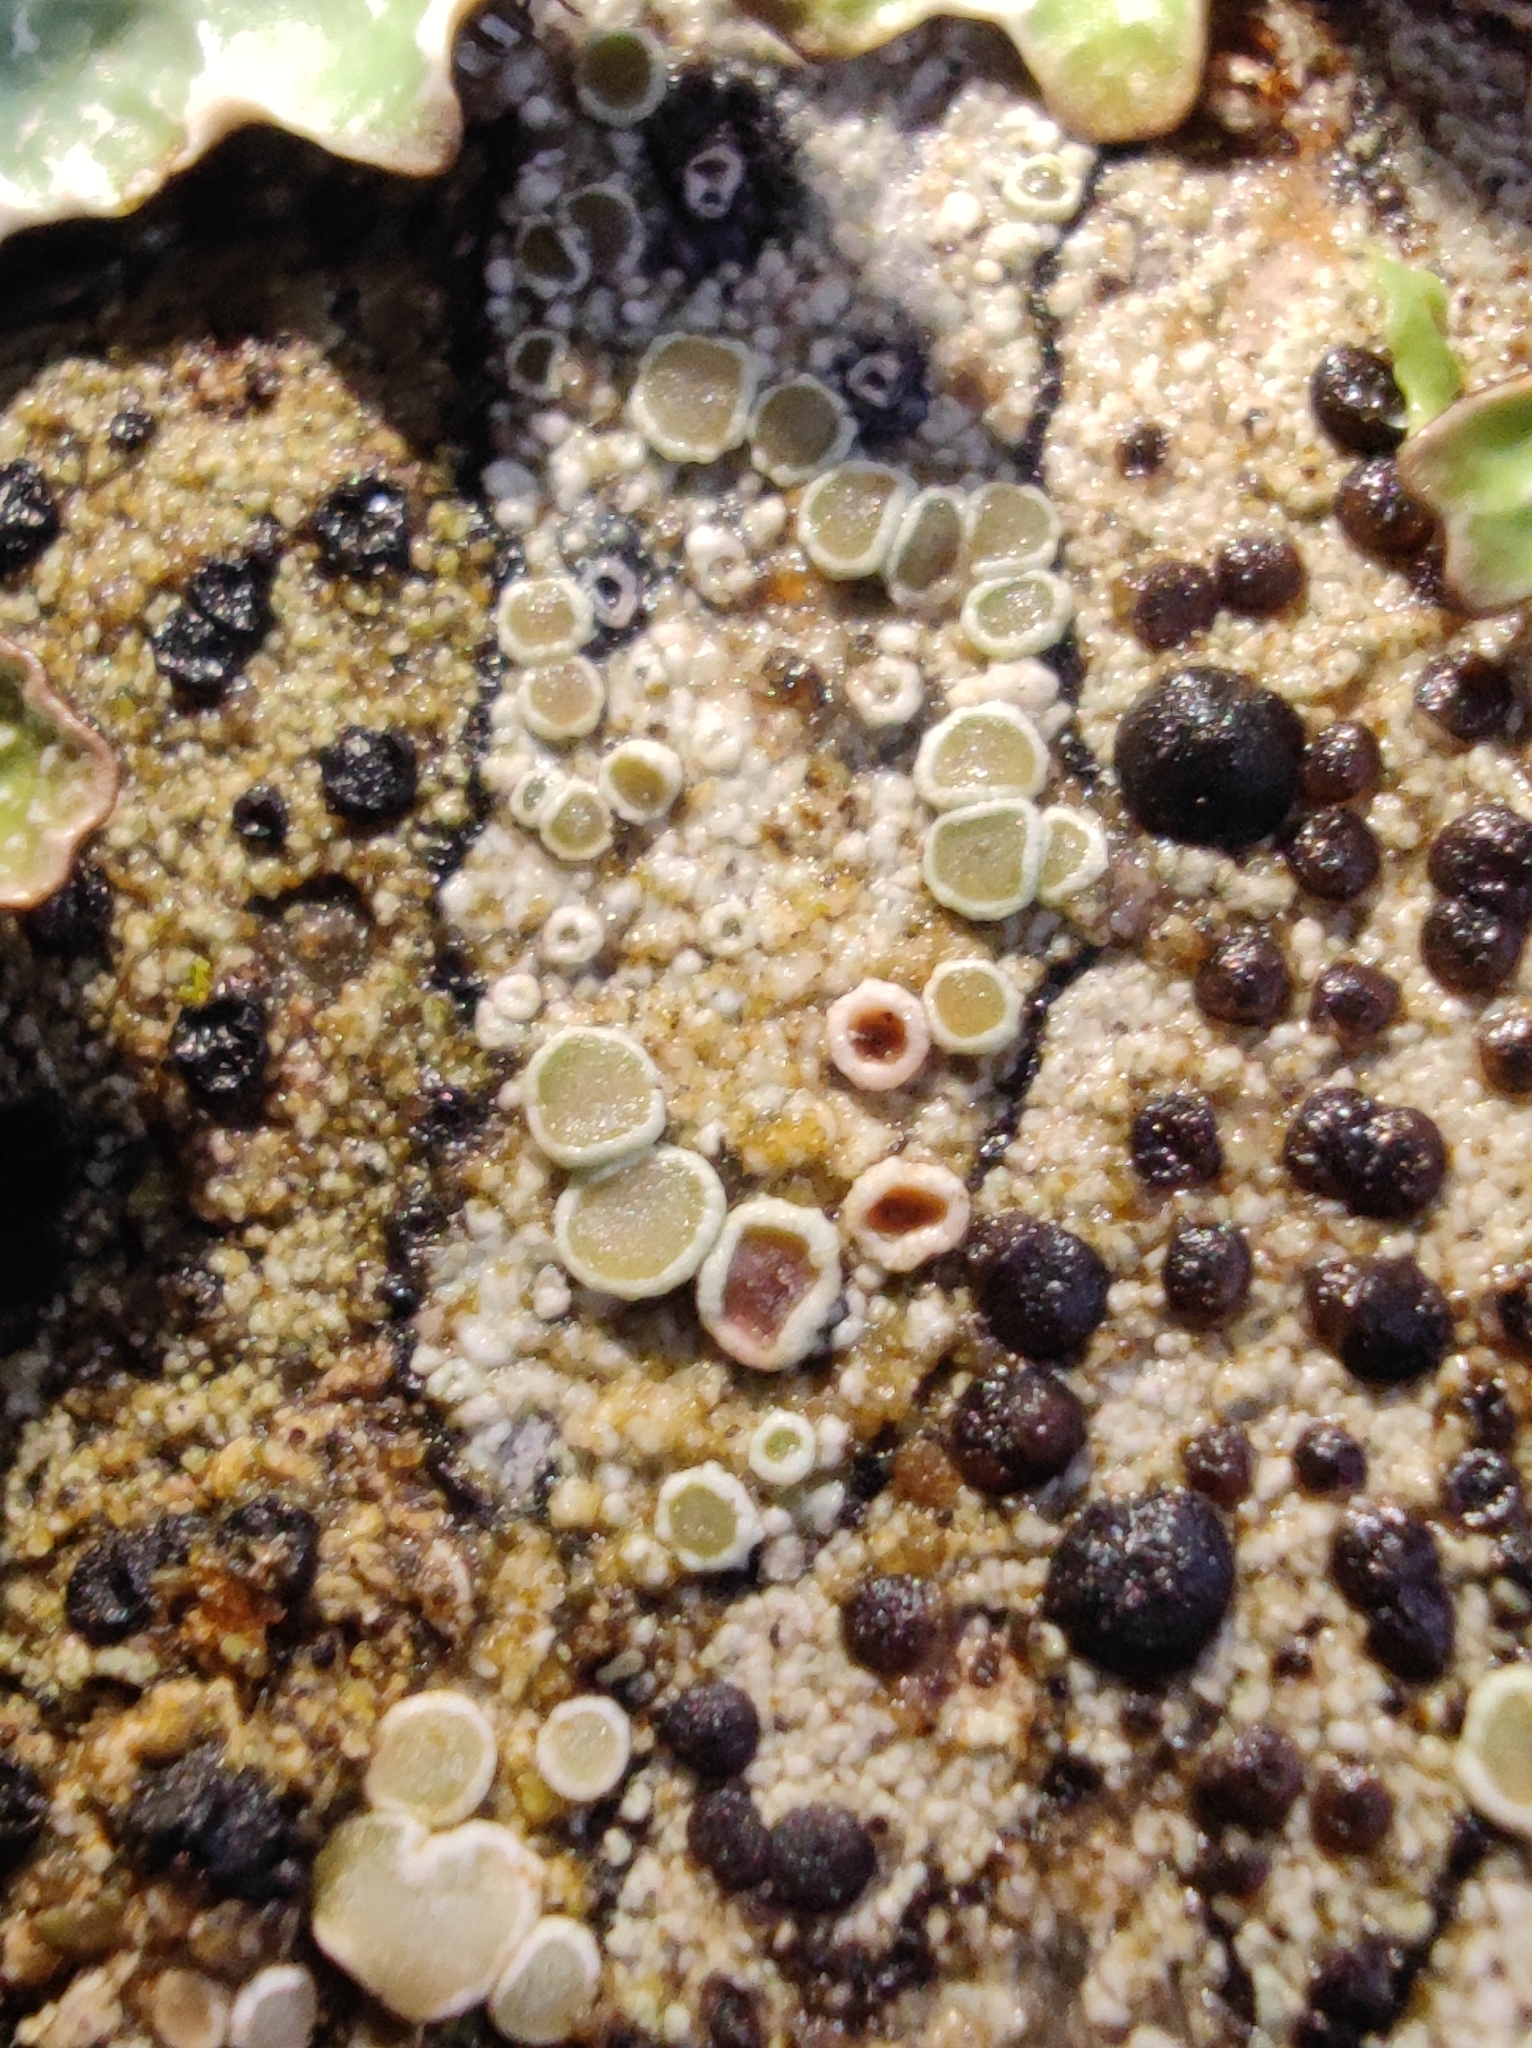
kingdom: Fungi
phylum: Ascomycota
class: Lecanoromycetes
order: Lecanorales
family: Lecanoraceae
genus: Lecanora
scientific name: Lecanora
